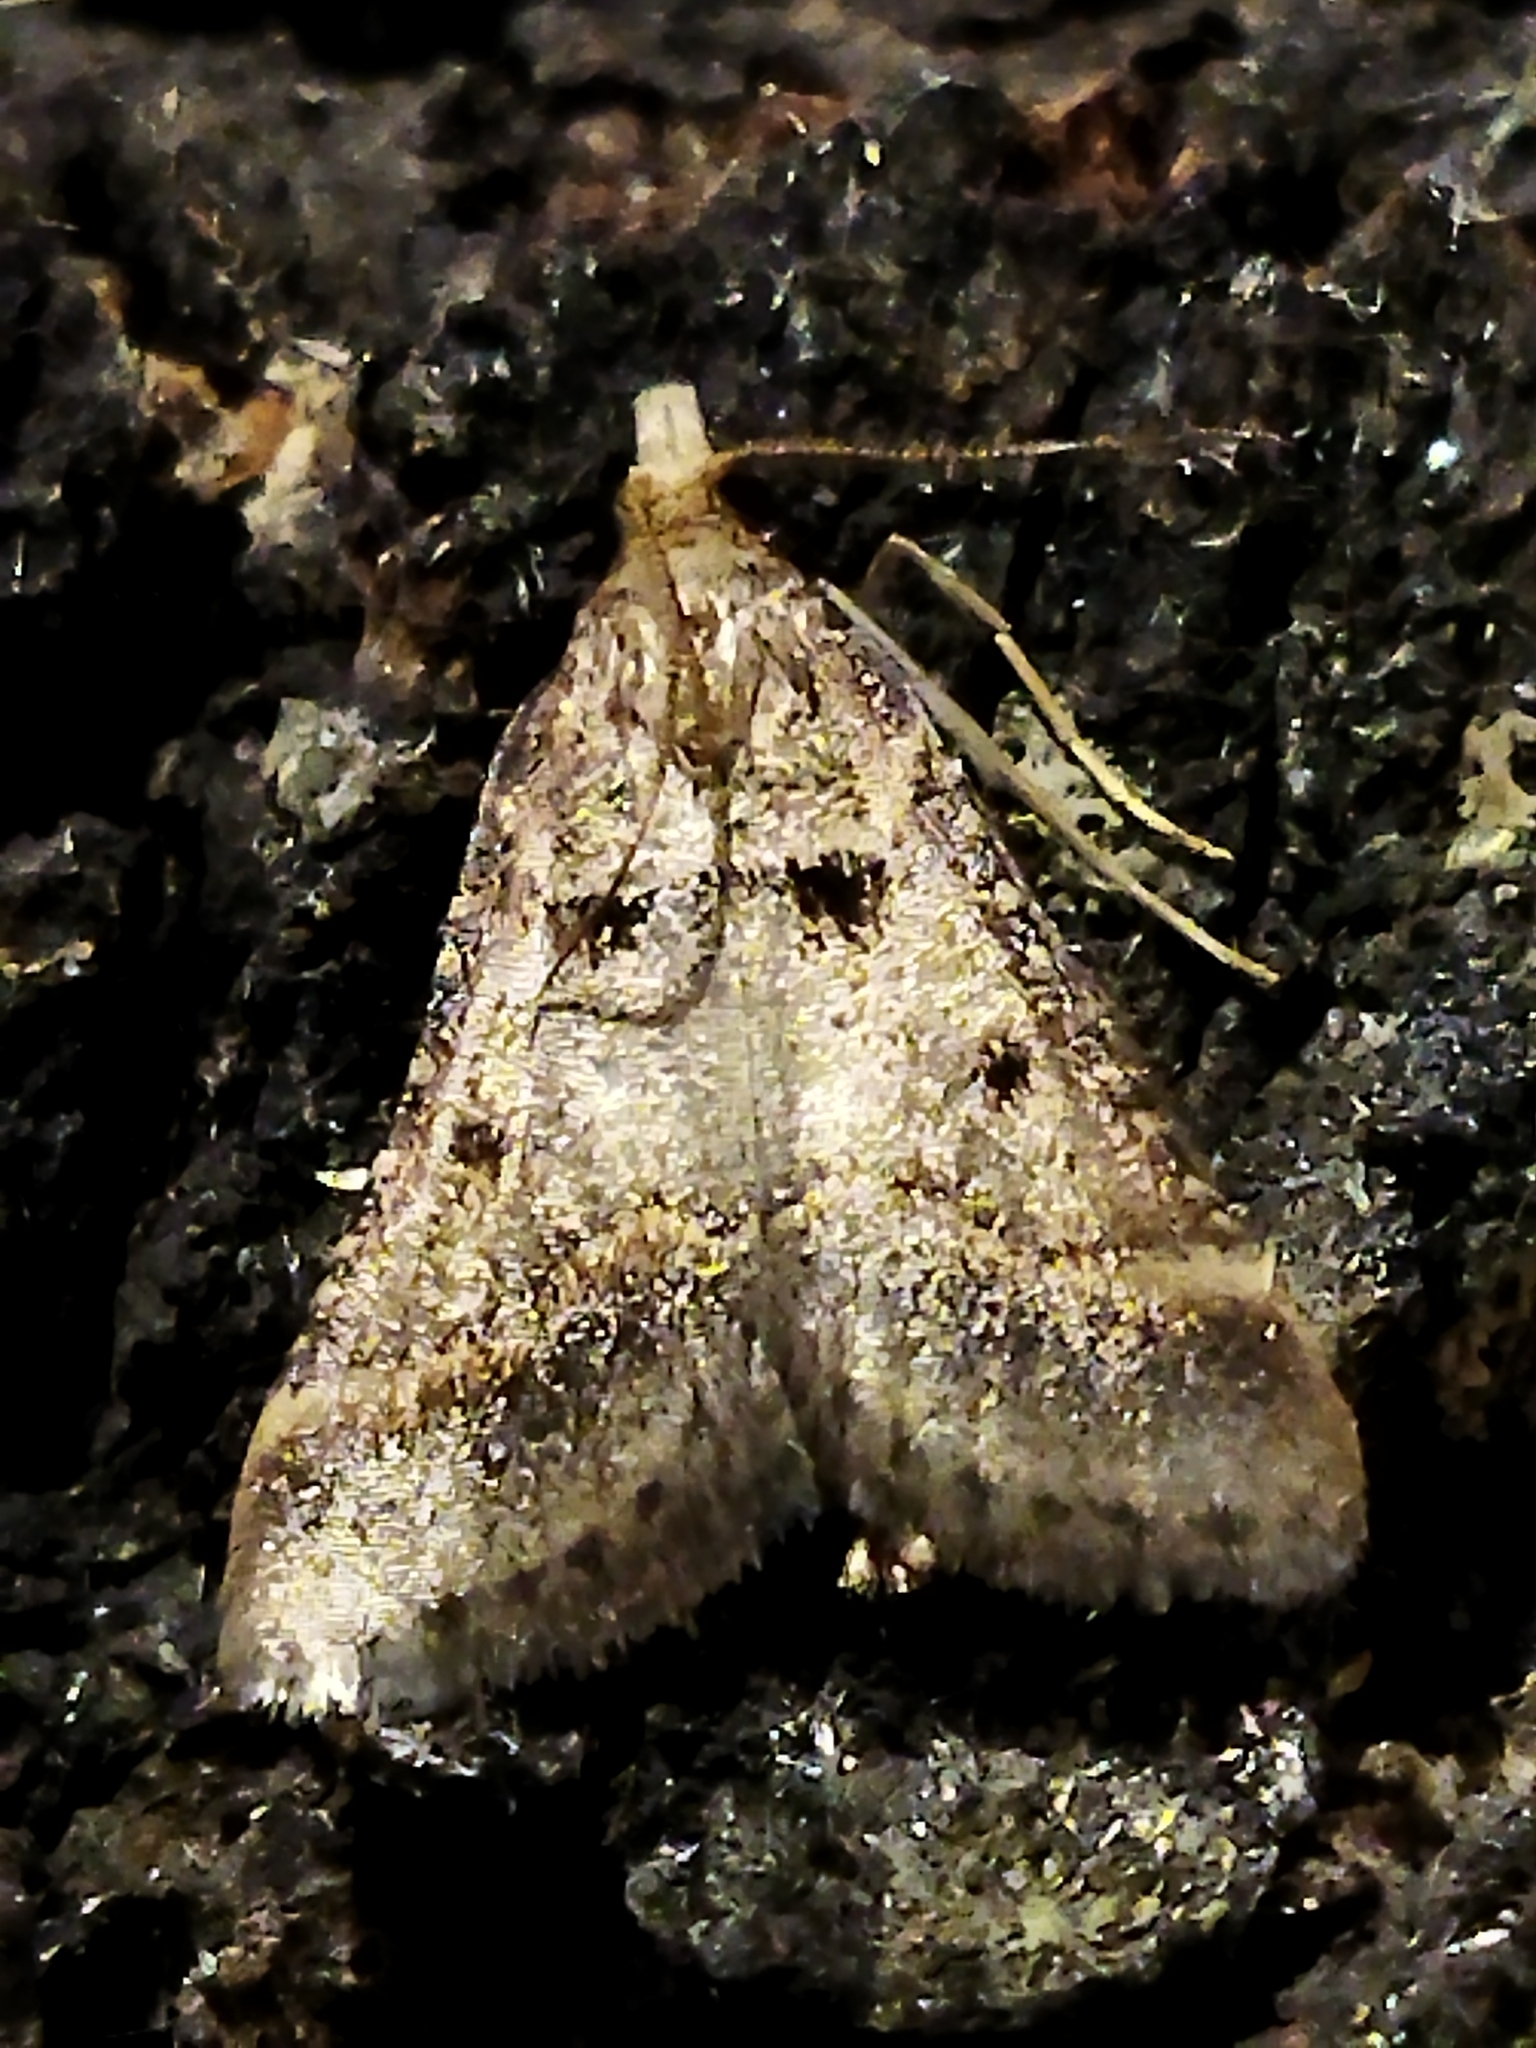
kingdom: Animalia
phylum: Arthropoda
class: Insecta
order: Lepidoptera
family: Pyralidae
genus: Stemmatophora
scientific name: Stemmatophora brunnealis
